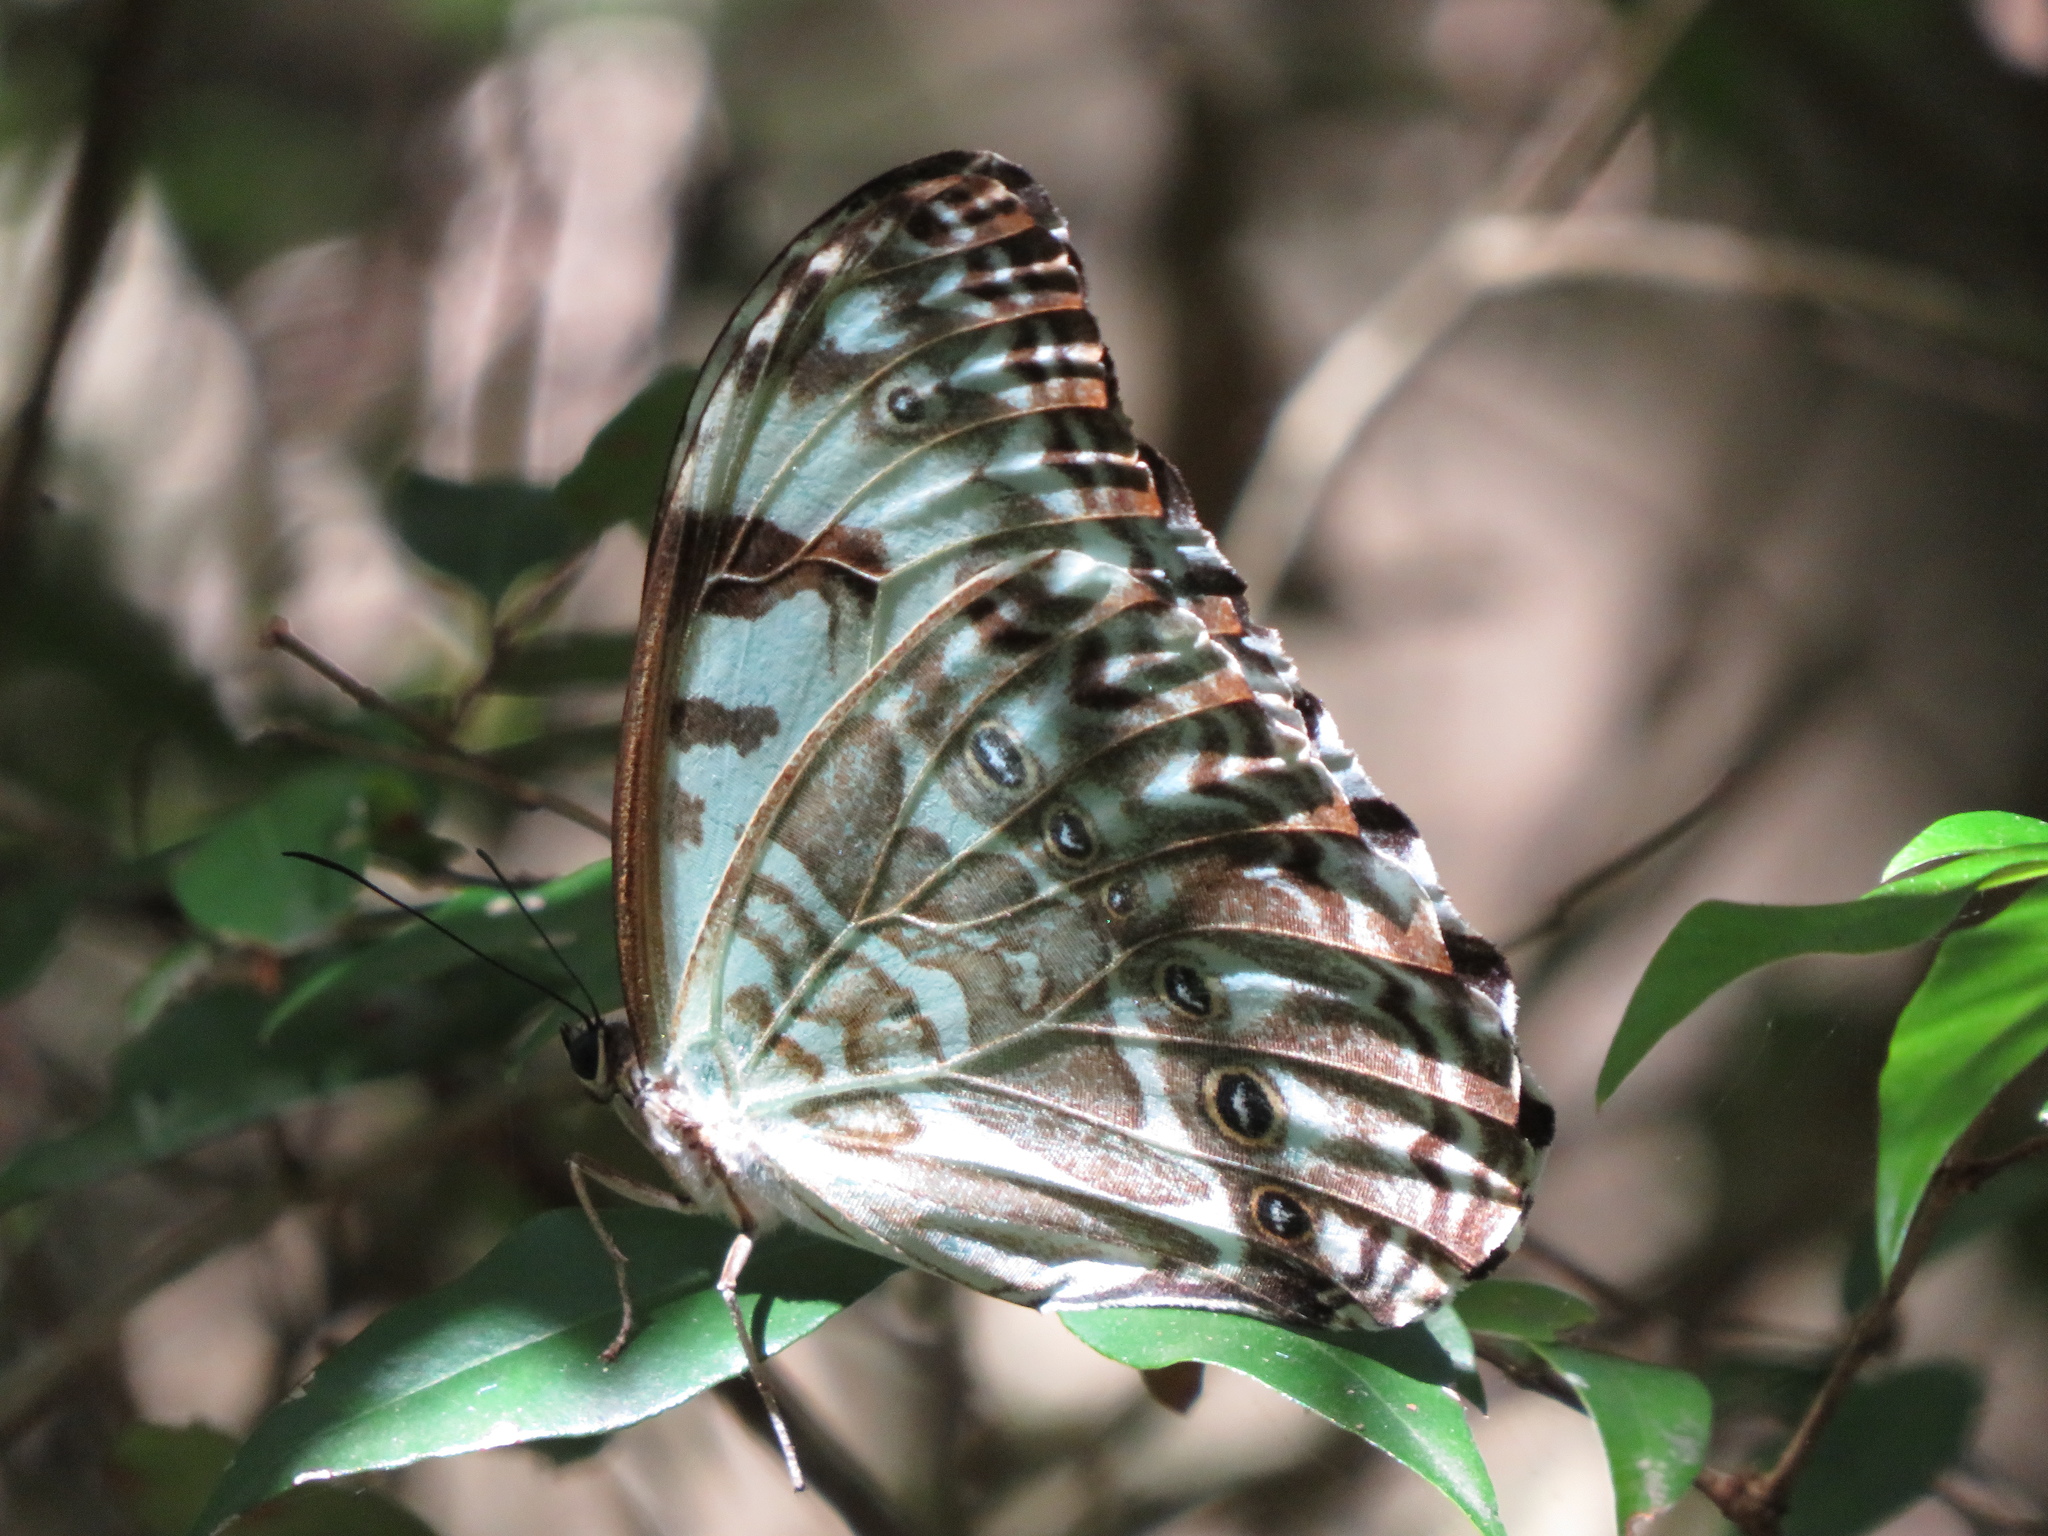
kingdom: Animalia
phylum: Arthropoda
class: Insecta
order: Lepidoptera
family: Nymphalidae
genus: Morpho
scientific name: Morpho epistrophus
